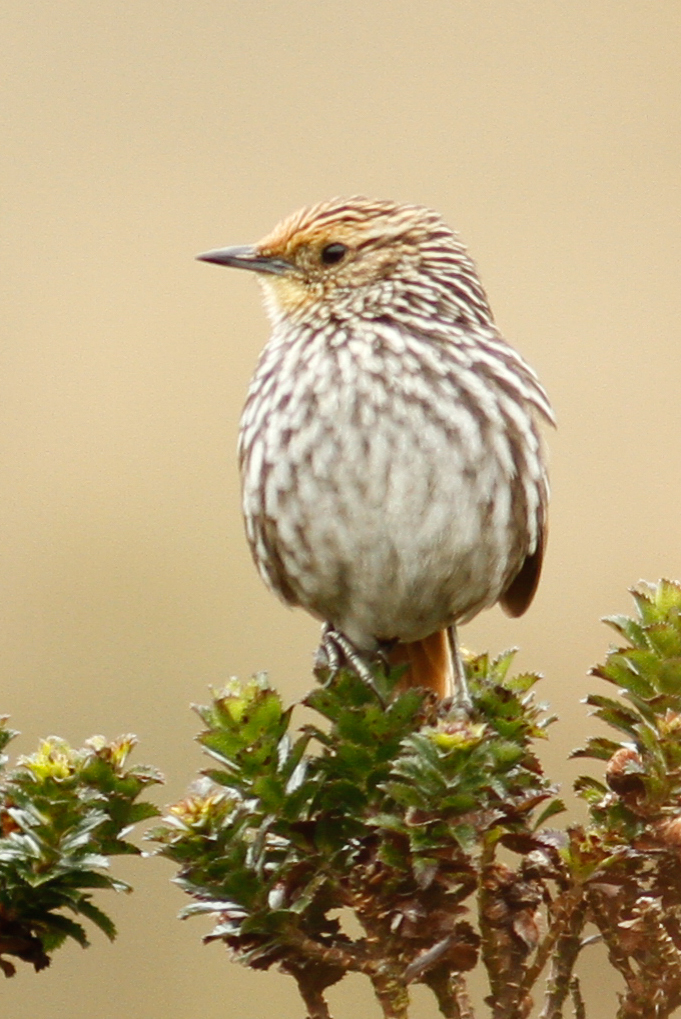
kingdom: Animalia
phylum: Chordata
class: Aves
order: Passeriformes
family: Furnariidae
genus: Asthenes
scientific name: Asthenes flammulata
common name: Many-striped canastero
